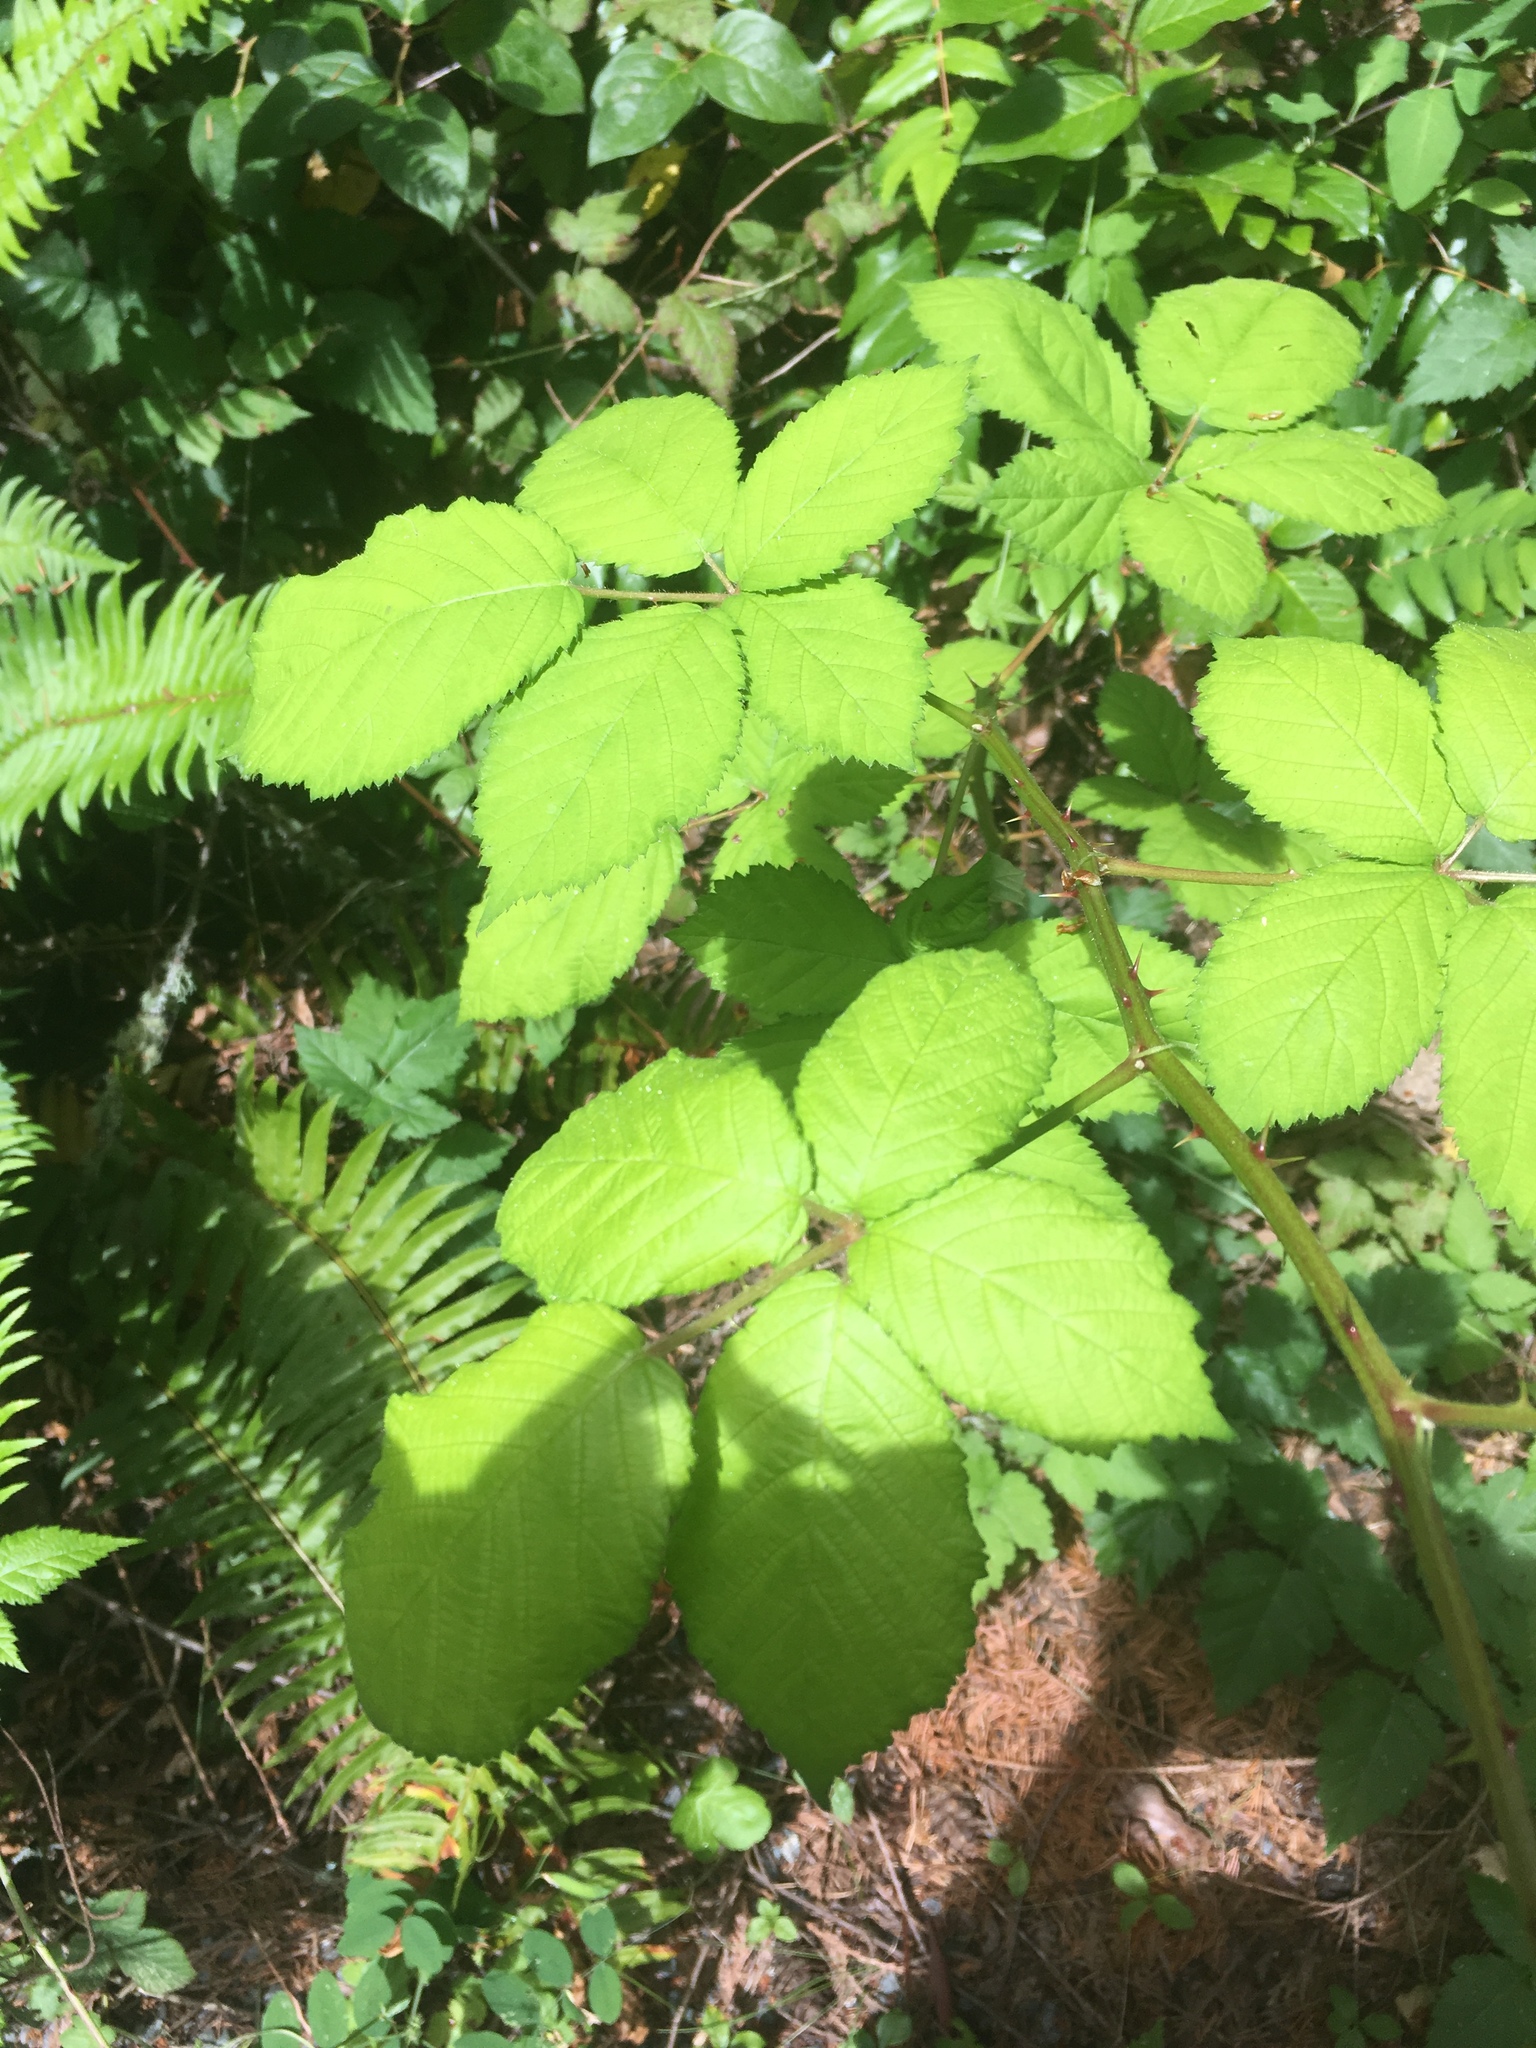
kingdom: Plantae
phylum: Tracheophyta
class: Magnoliopsida
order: Rosales
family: Rosaceae
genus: Rubus
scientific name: Rubus bifrons
